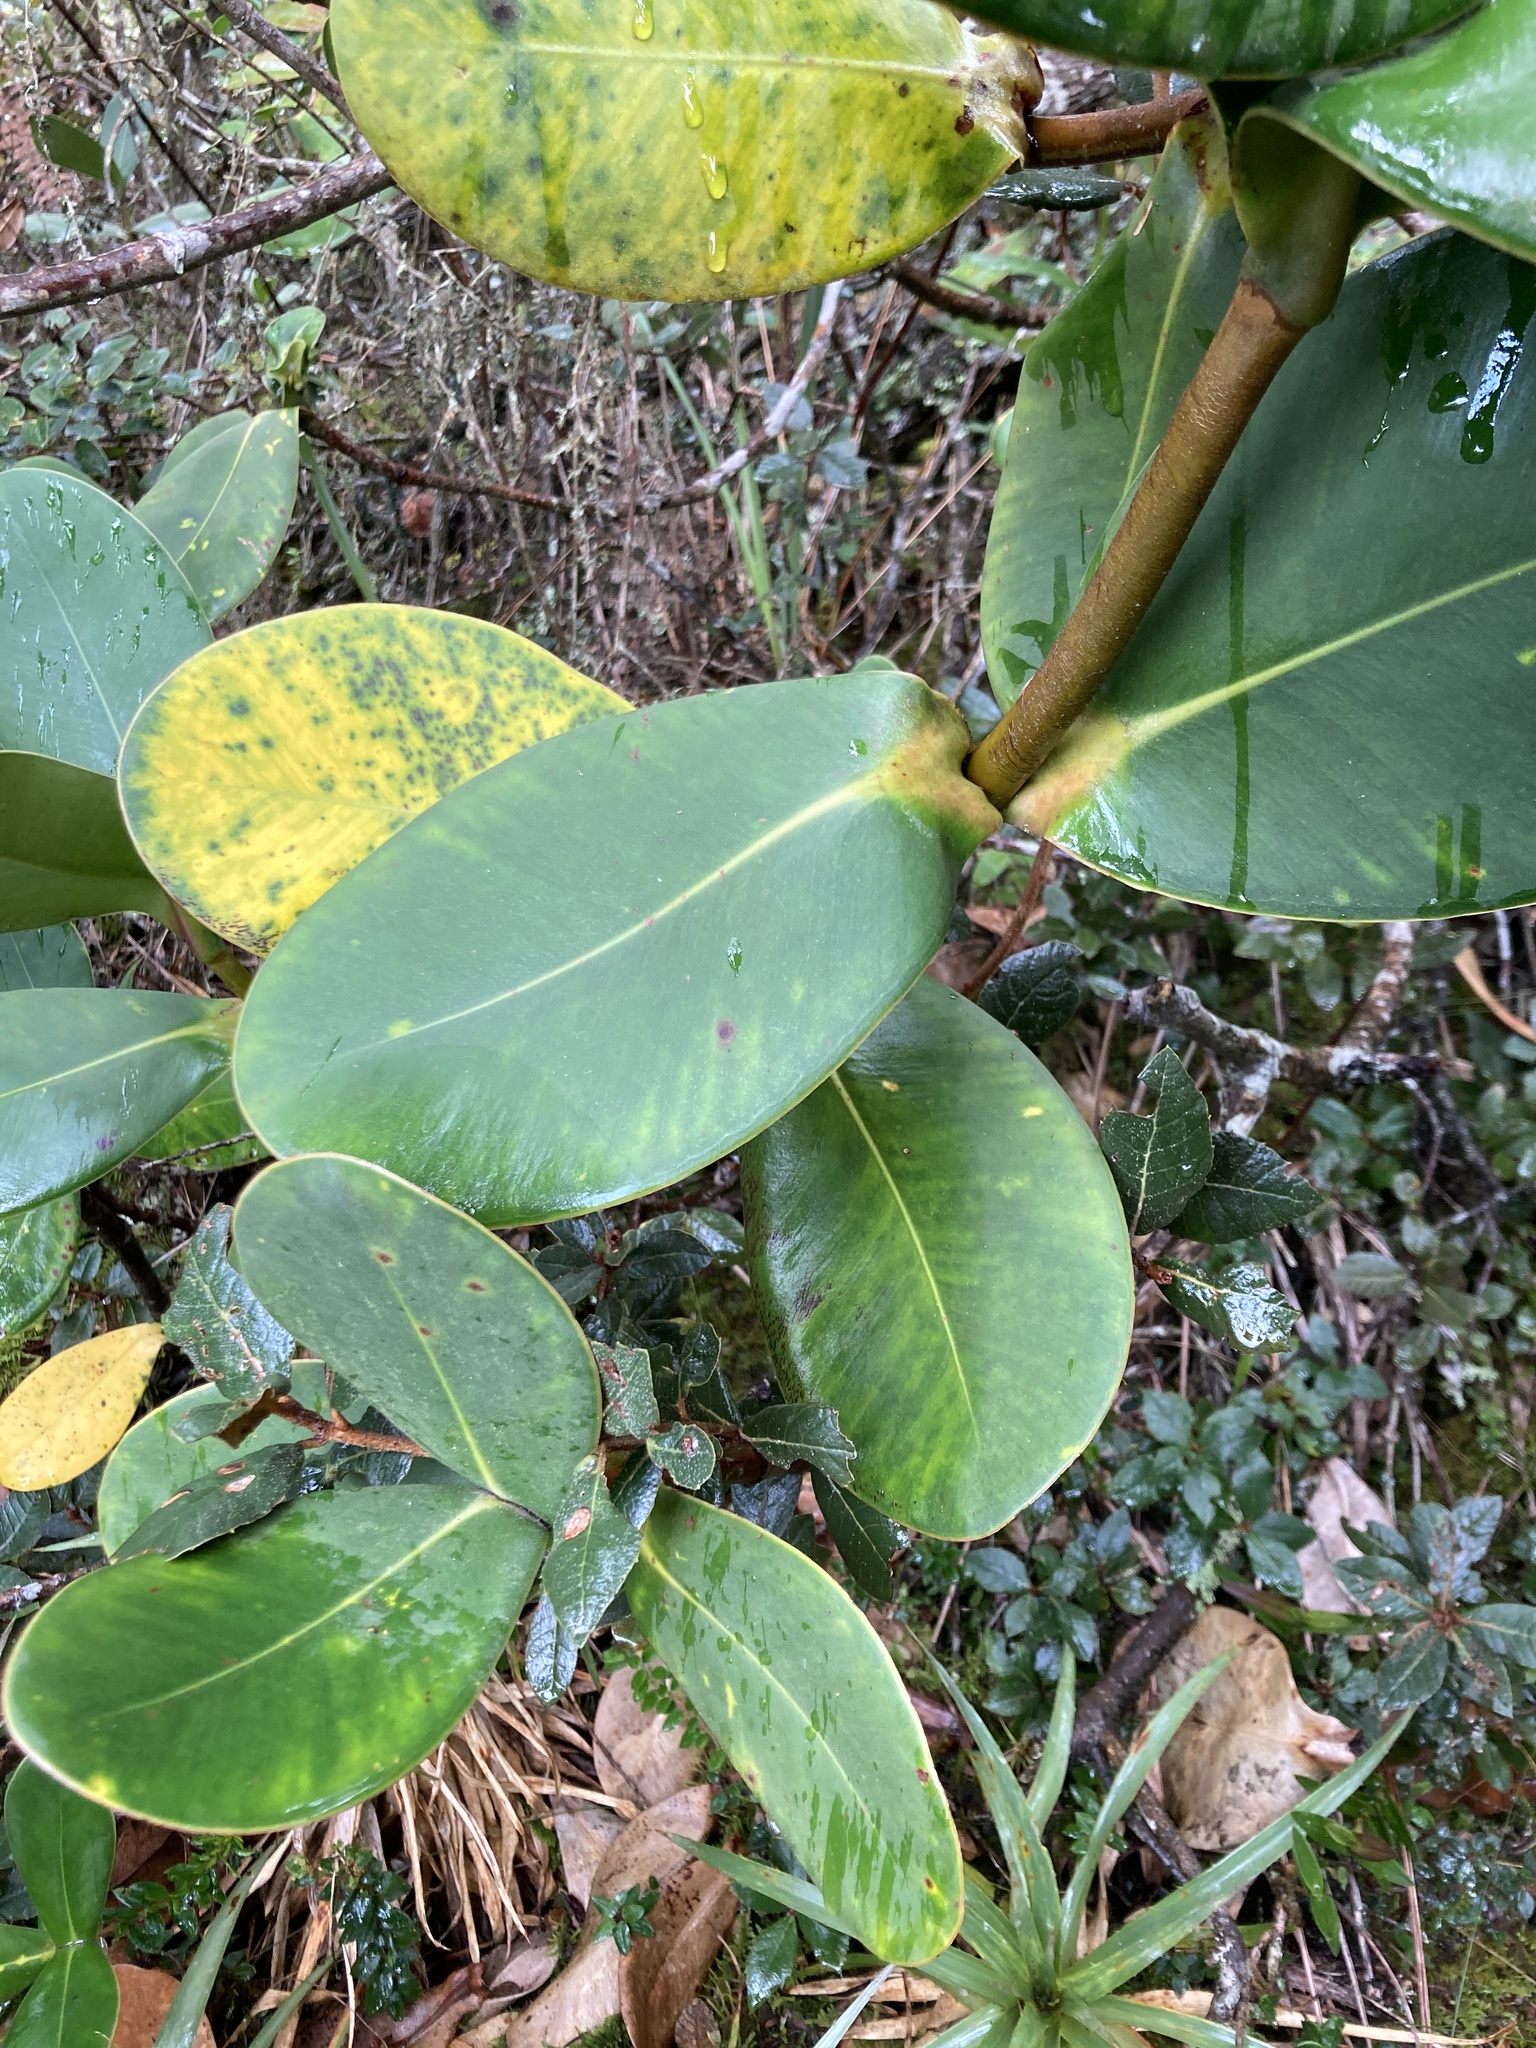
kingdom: Plantae
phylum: Tracheophyta
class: Magnoliopsida
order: Malpighiales
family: Clusiaceae
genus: Clusia
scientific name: Clusia multiflora
